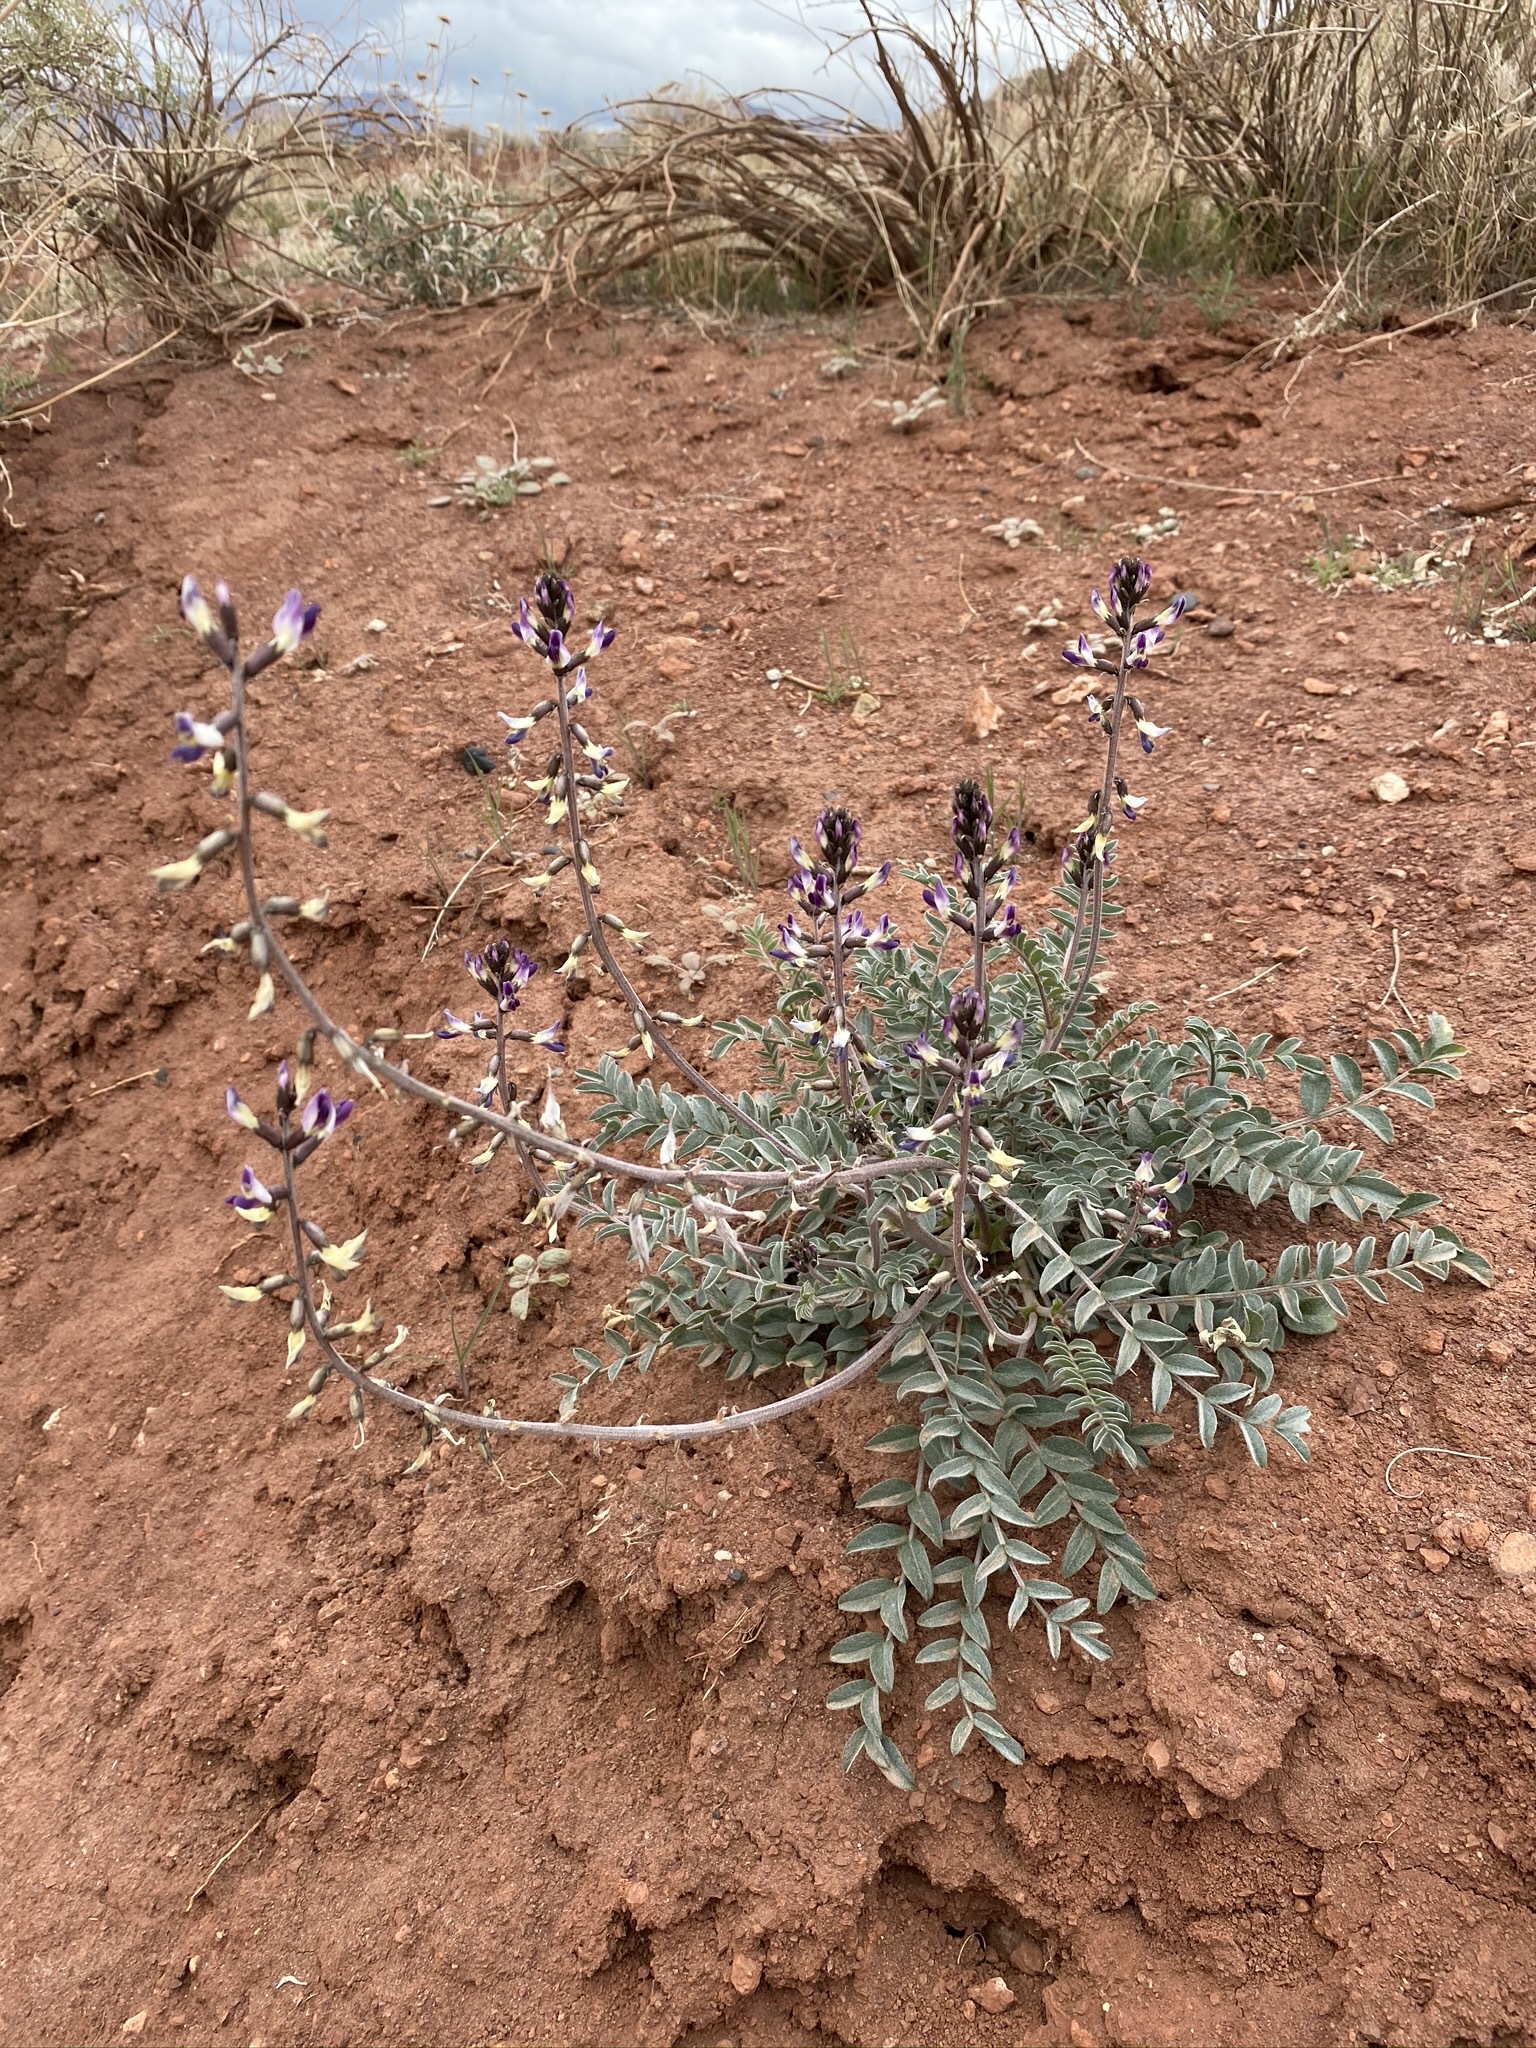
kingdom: Plantae
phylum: Tracheophyta
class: Magnoliopsida
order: Fabales
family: Fabaceae
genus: Astragalus
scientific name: Astragalus layneae
